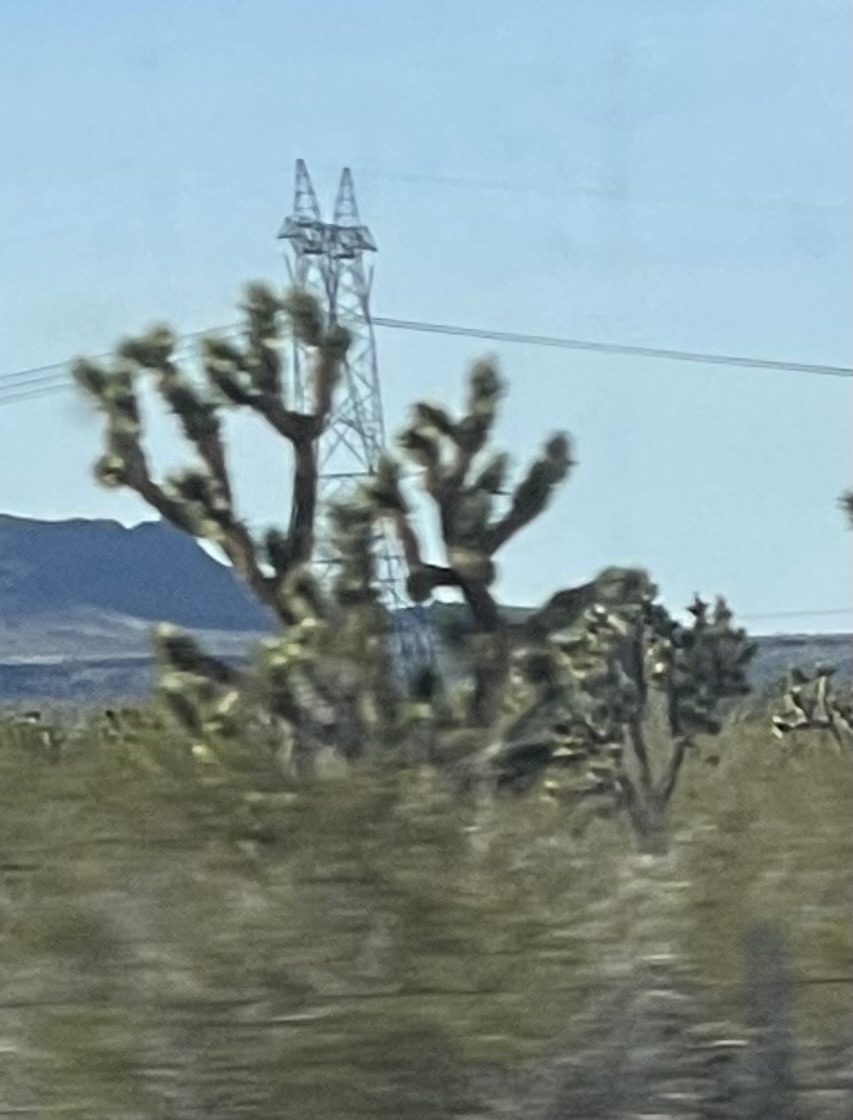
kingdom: Plantae
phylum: Tracheophyta
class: Liliopsida
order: Asparagales
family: Asparagaceae
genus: Yucca
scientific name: Yucca brevifolia
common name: Joshua tree
